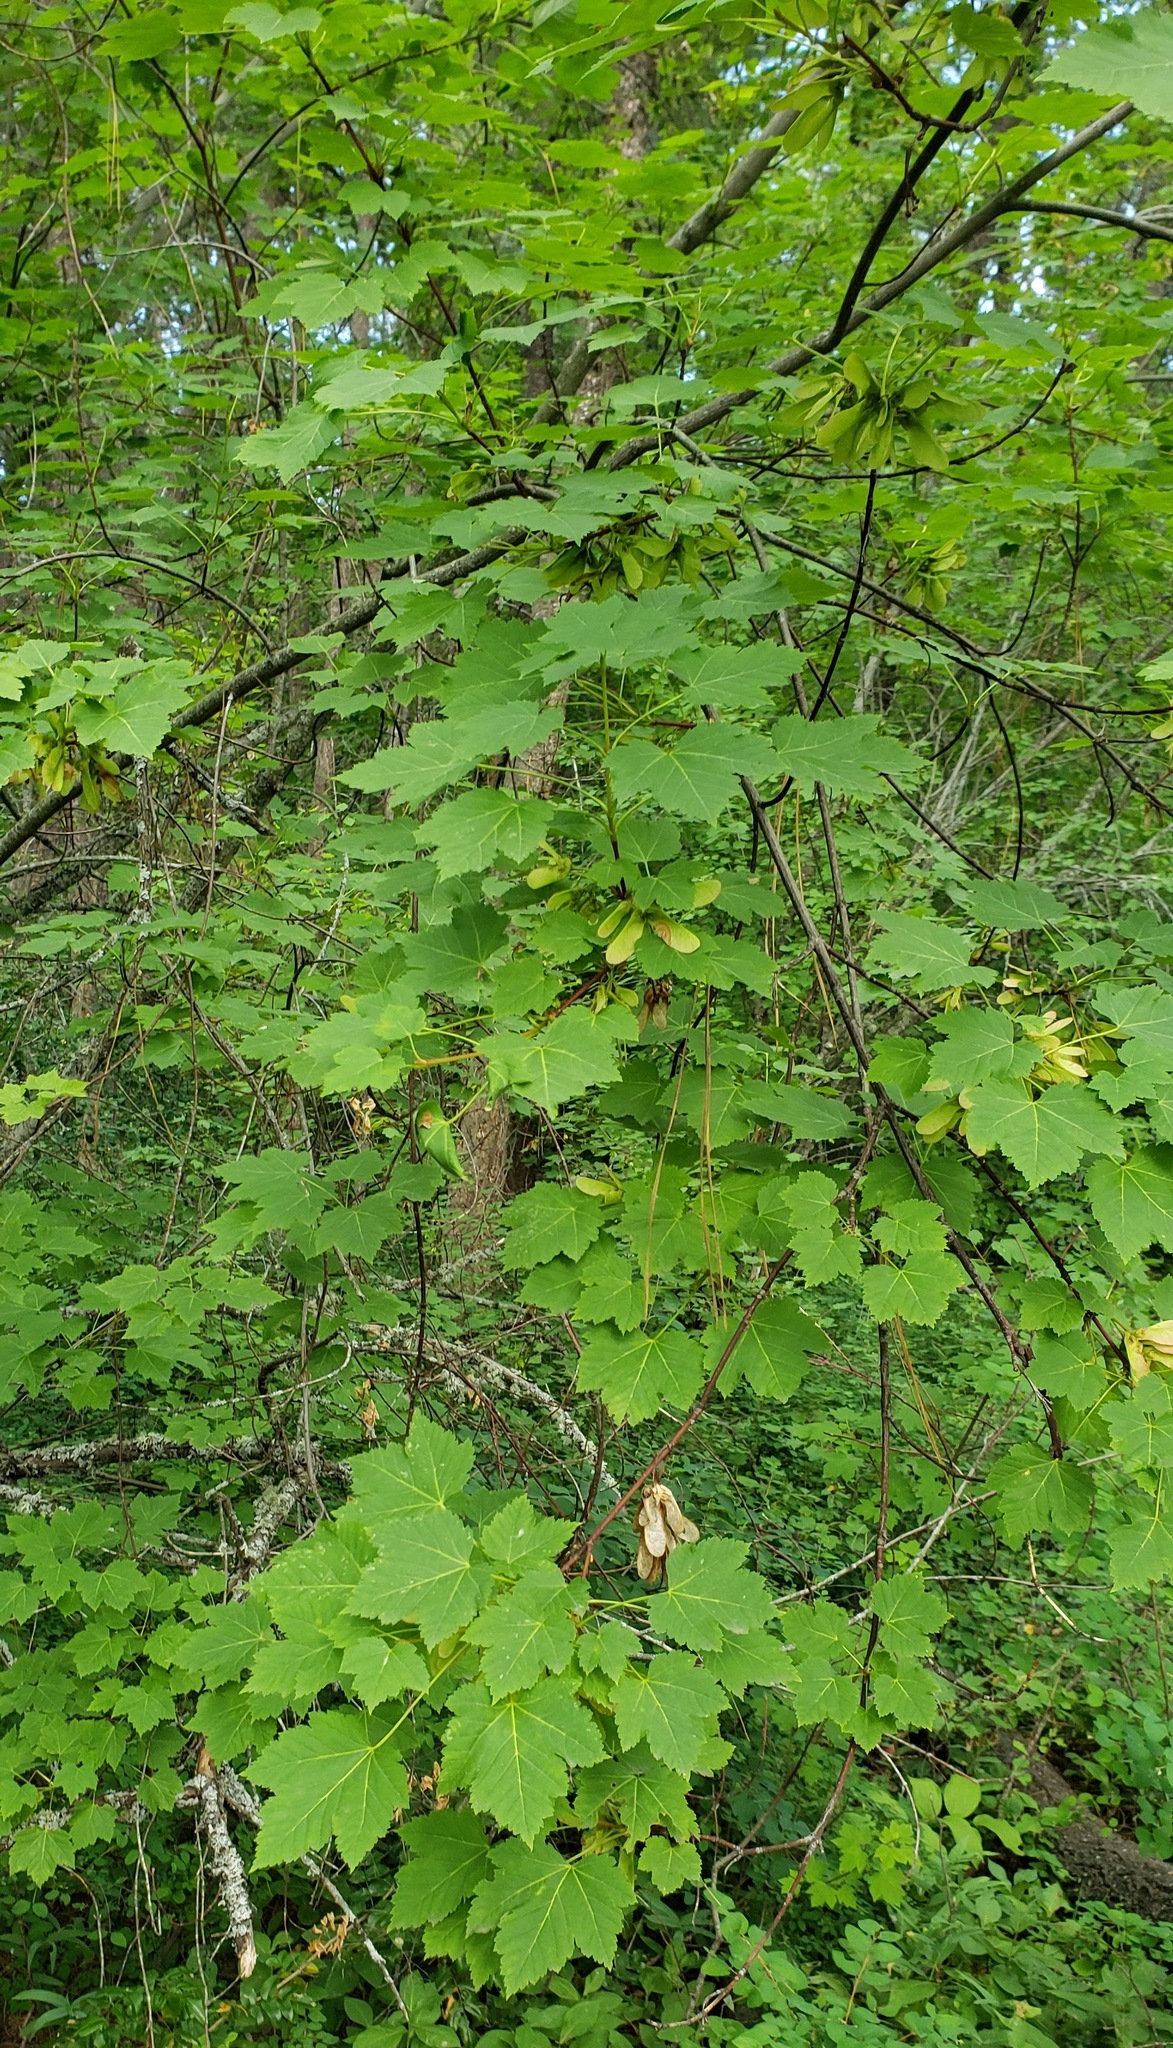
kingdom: Plantae
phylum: Tracheophyta
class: Magnoliopsida
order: Sapindales
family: Sapindaceae
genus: Acer
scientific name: Acer glabrum
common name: Rocky mountain maple
